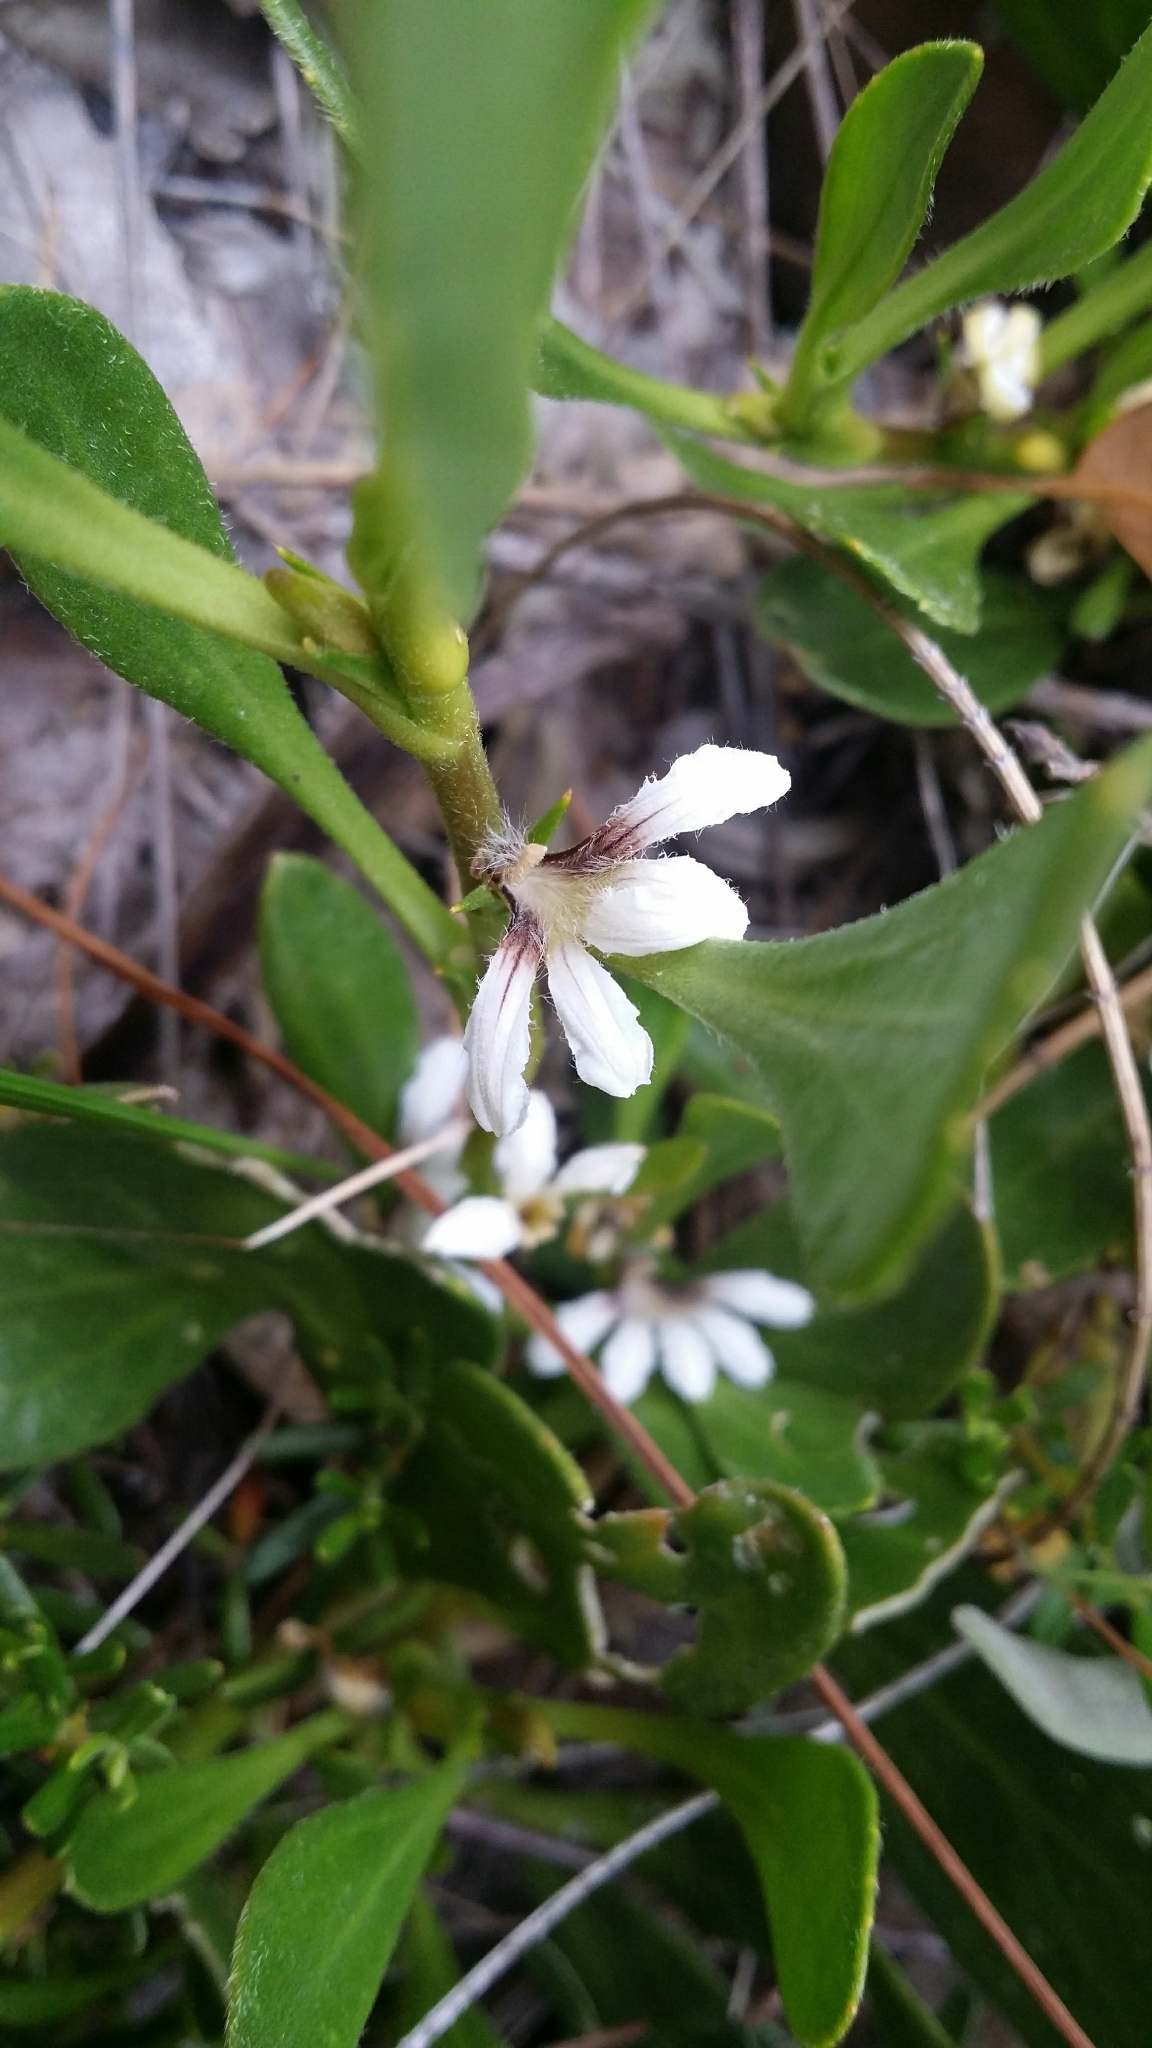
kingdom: Plantae
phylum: Tracheophyta
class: Magnoliopsida
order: Asterales
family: Goodeniaceae
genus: Scaevola
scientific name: Scaevola repens
